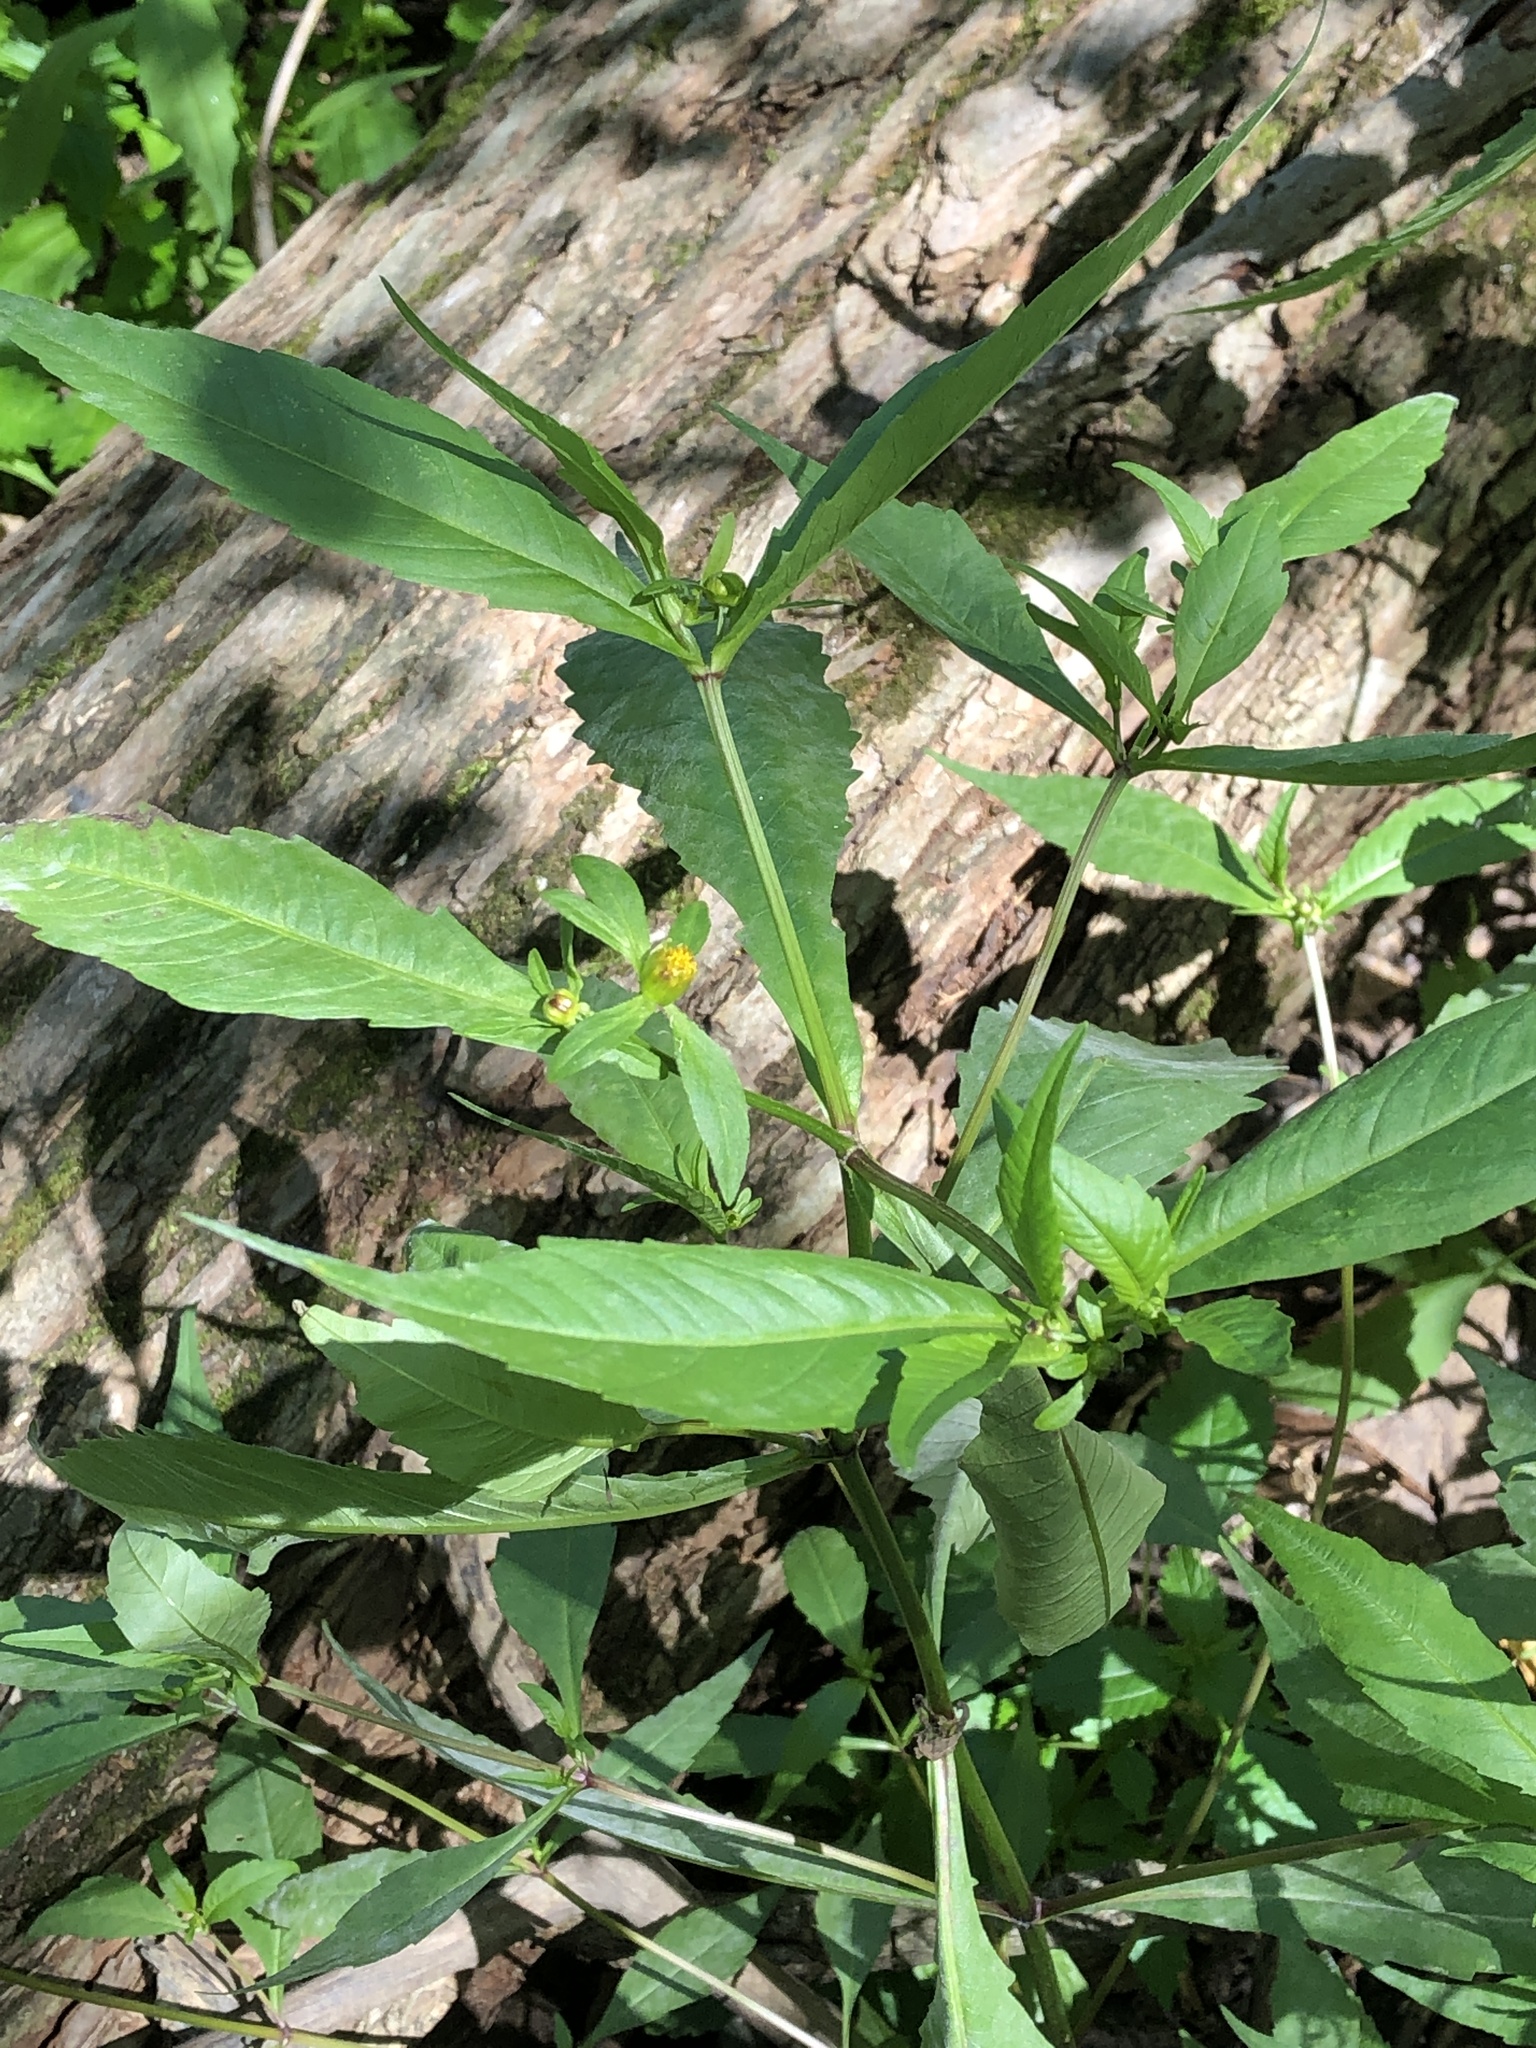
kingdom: Plantae
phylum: Tracheophyta
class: Magnoliopsida
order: Asterales
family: Asteraceae
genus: Bidens
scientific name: Bidens connata
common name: London bur-marigold
